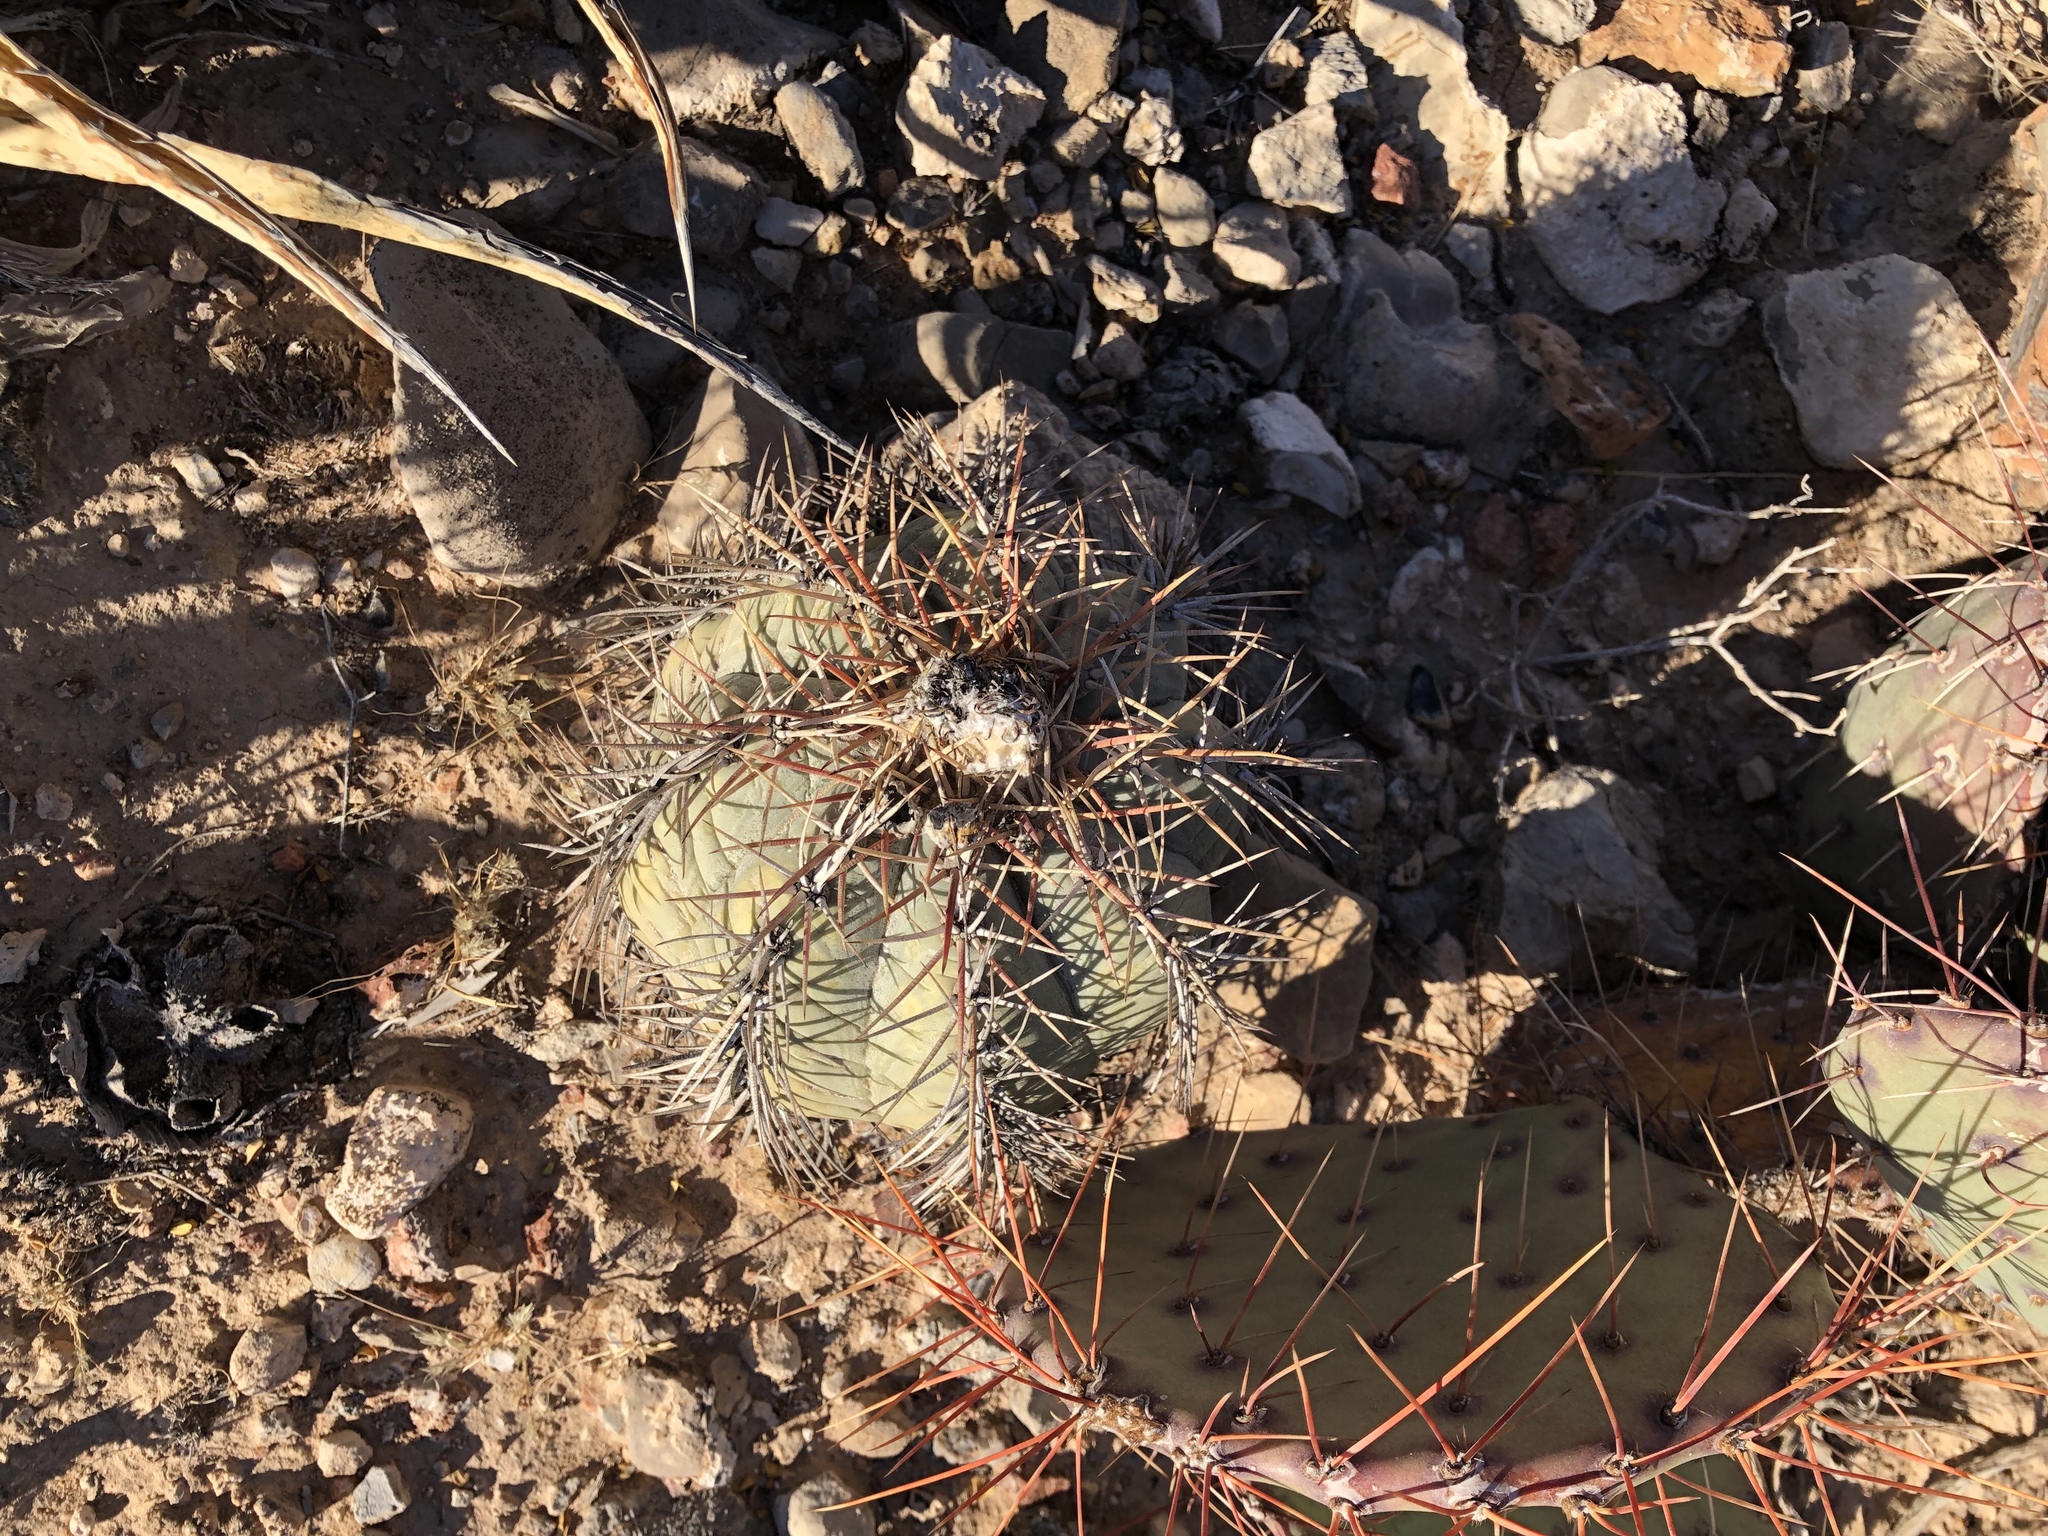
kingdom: Plantae
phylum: Tracheophyta
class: Magnoliopsida
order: Caryophyllales
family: Cactaceae
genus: Echinocactus
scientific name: Echinocactus horizonthalonius
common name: Devilshead
